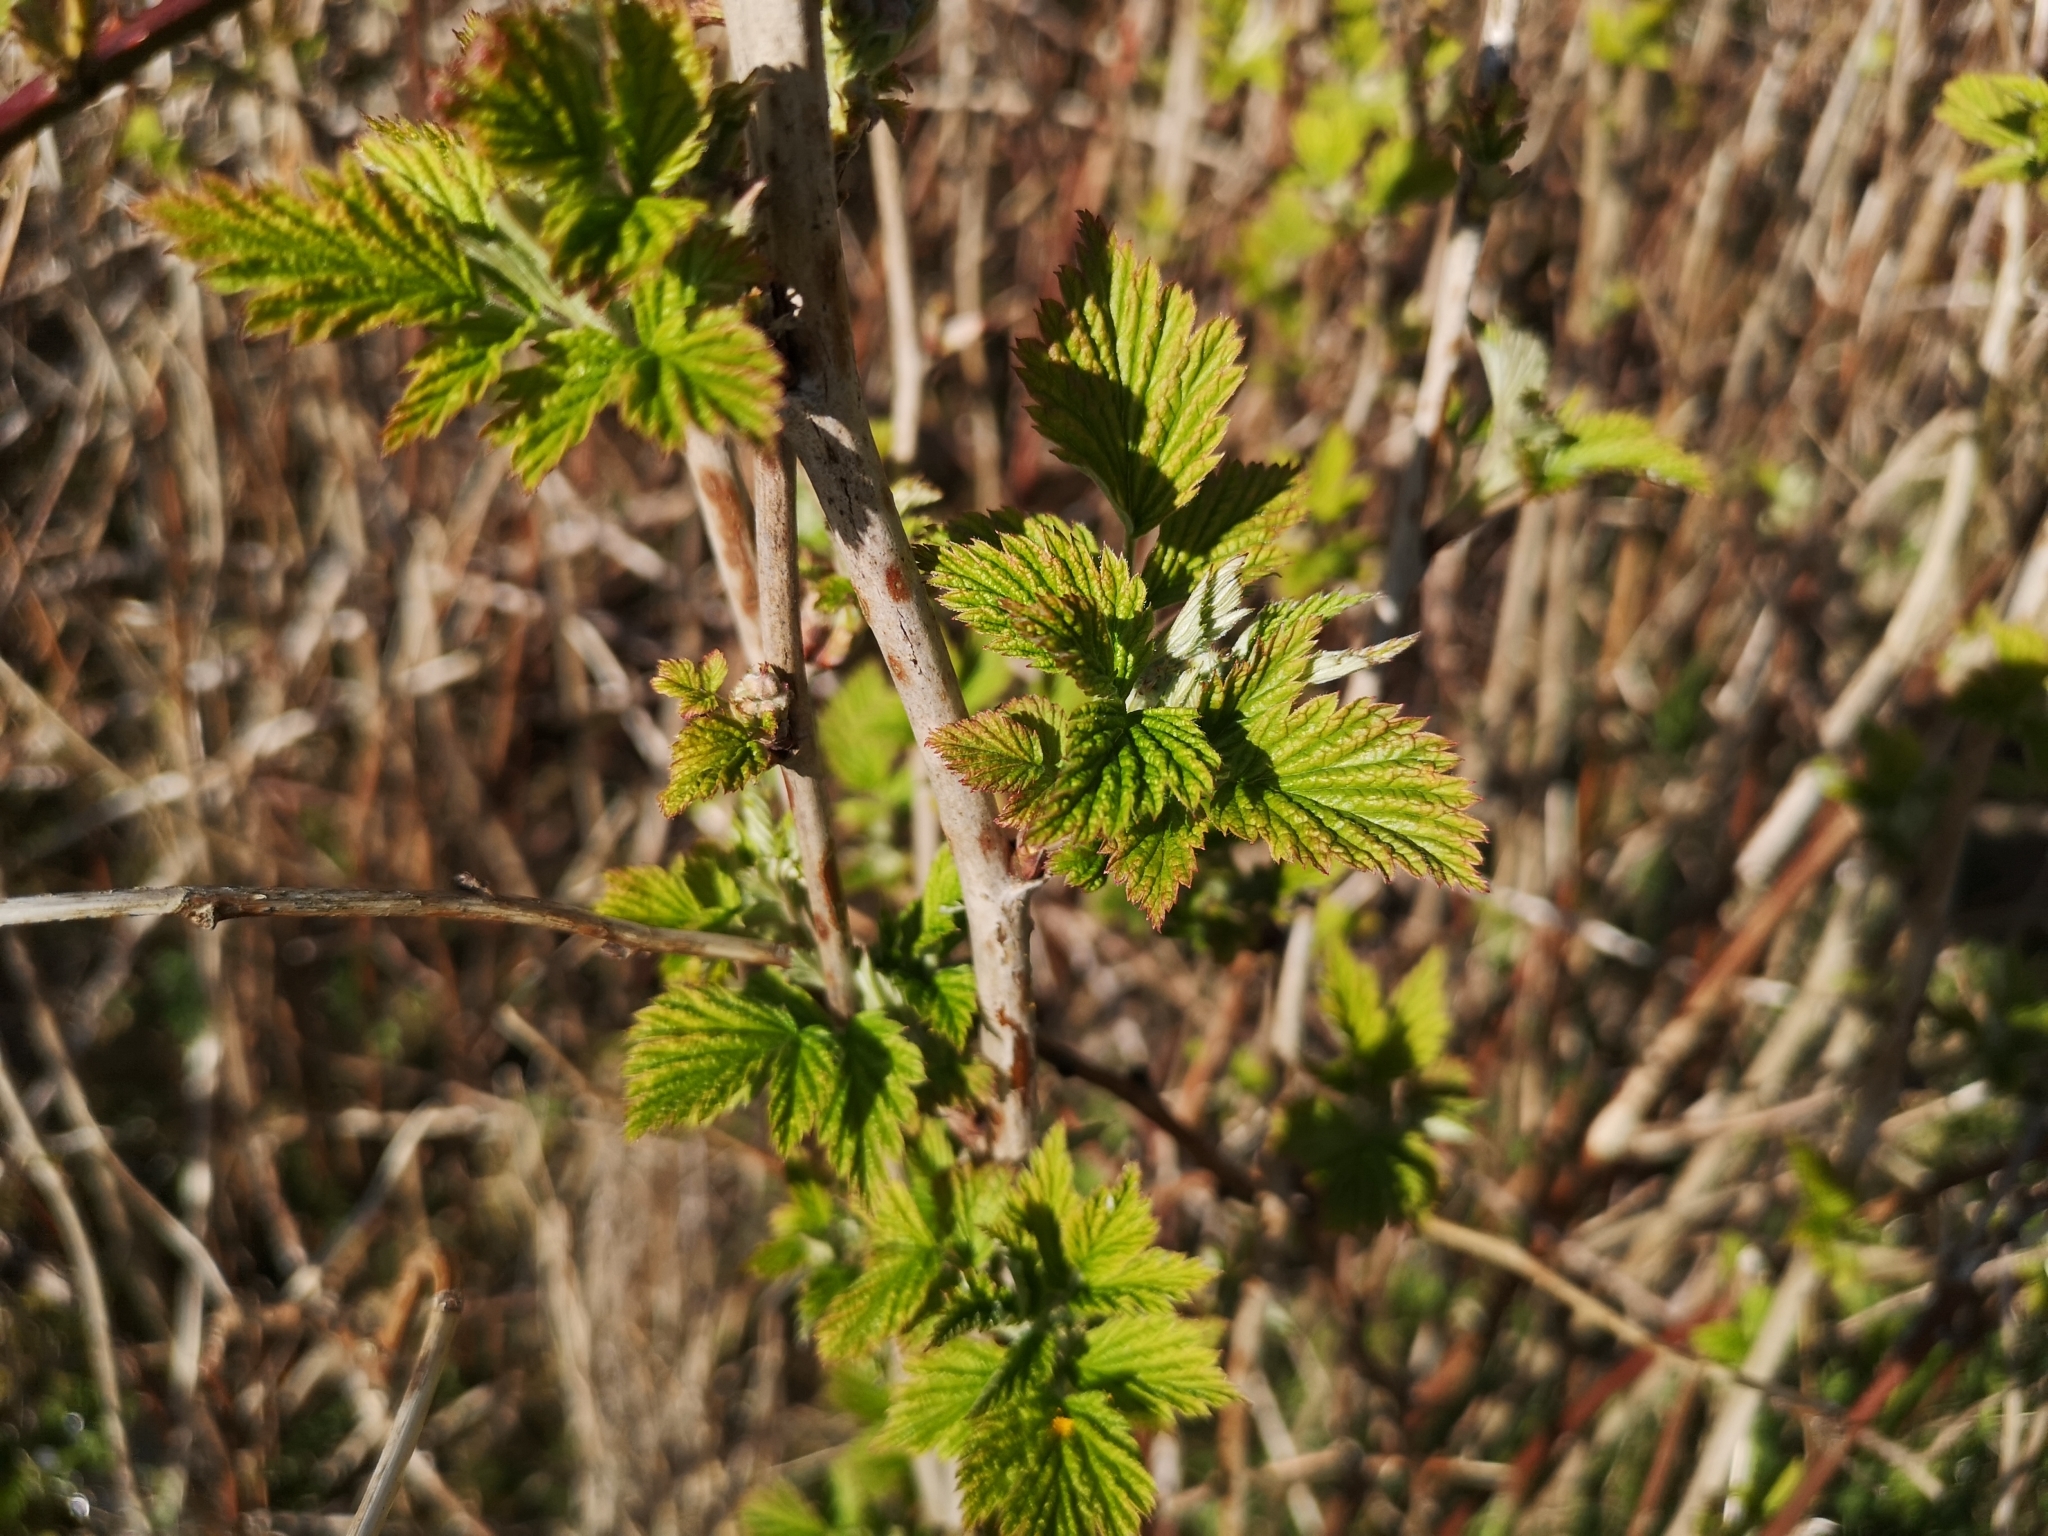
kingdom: Plantae
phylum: Tracheophyta
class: Magnoliopsida
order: Rosales
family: Rosaceae
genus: Rubus
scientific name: Rubus idaeus
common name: Raspberry
